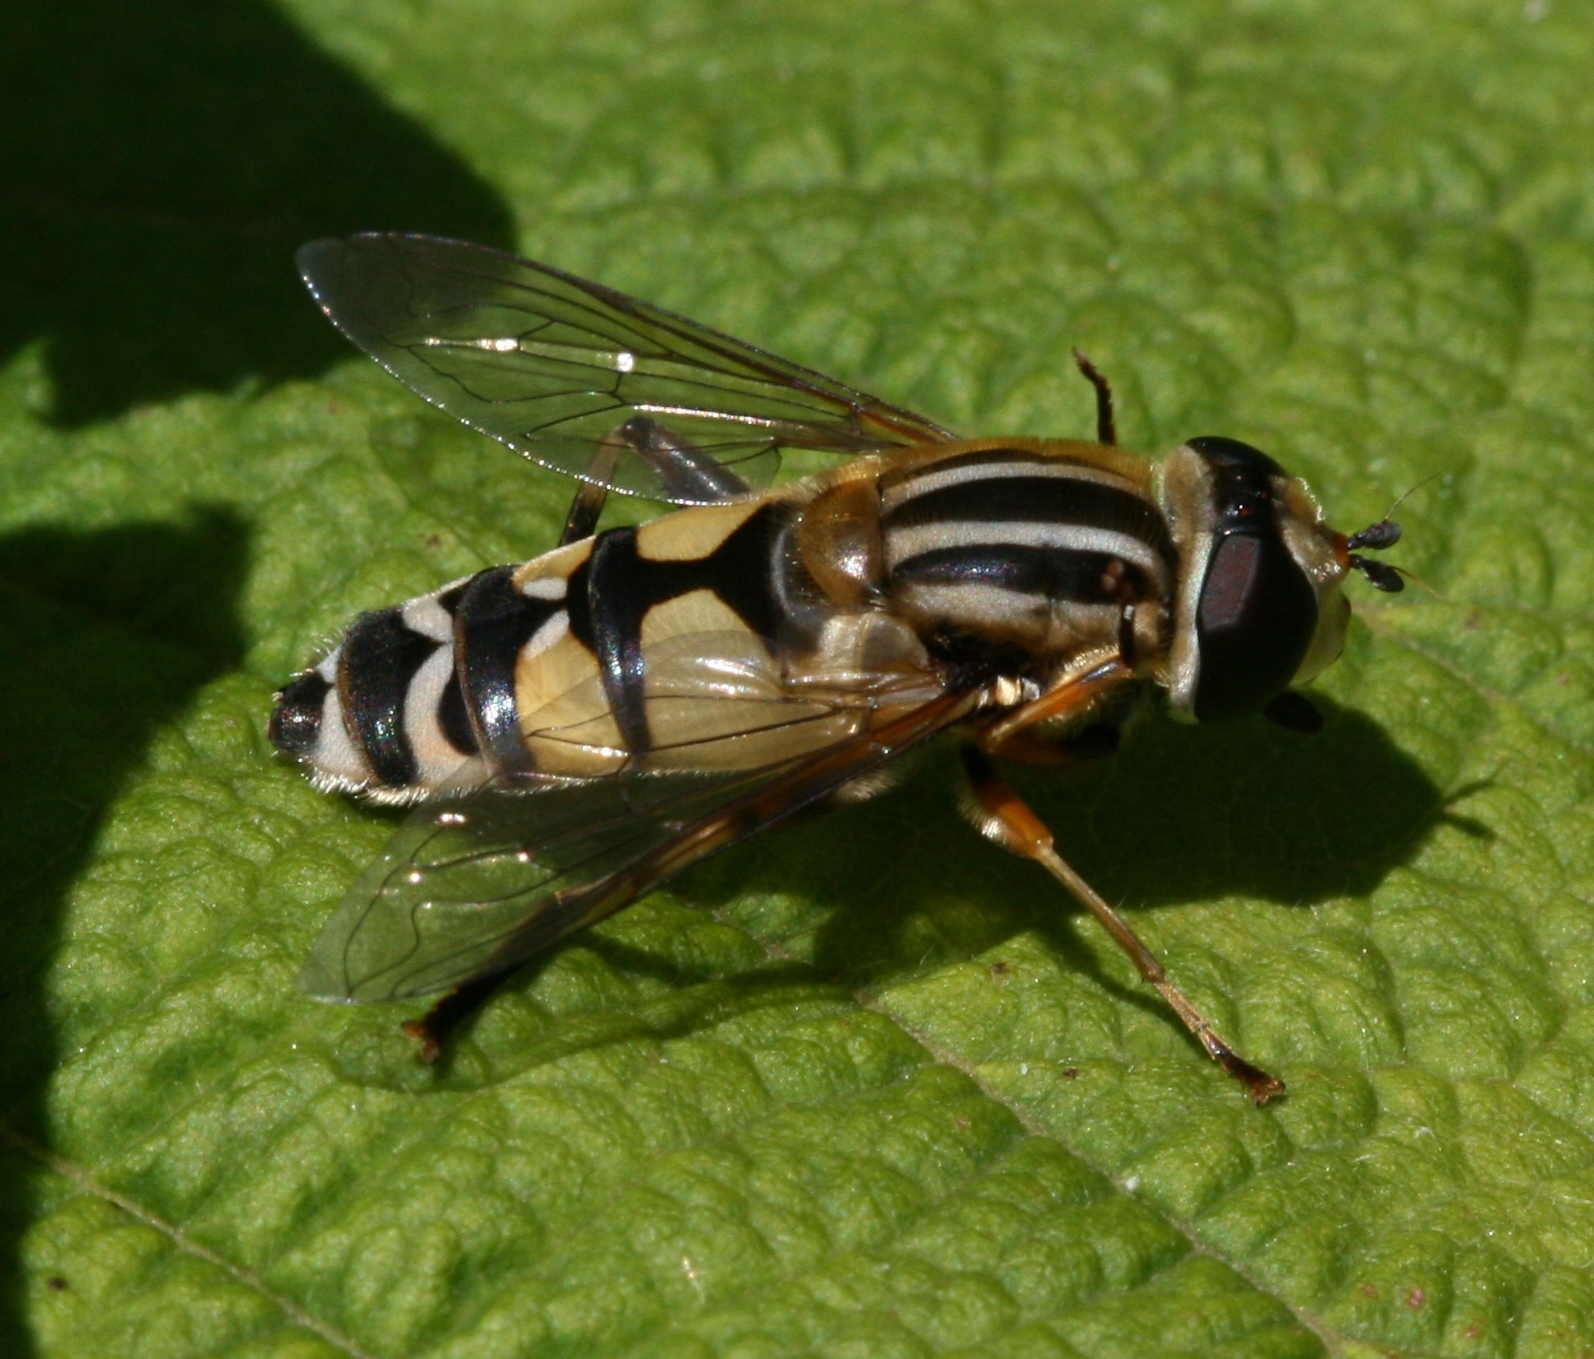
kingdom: Animalia
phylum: Arthropoda
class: Insecta
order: Diptera
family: Syrphidae
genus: Helophilus
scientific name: Helophilus trivittatus
